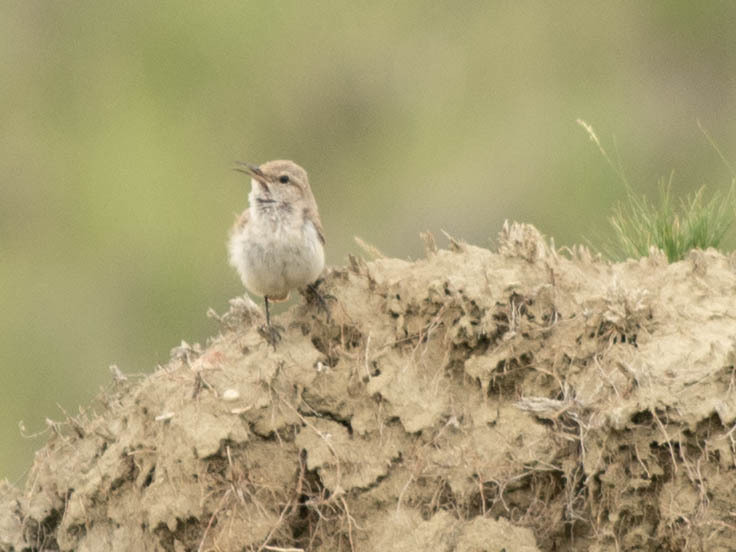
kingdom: Animalia
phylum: Chordata
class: Aves
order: Passeriformes
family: Troglodytidae
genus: Salpinctes
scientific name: Salpinctes obsoletus
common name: Rock wren
